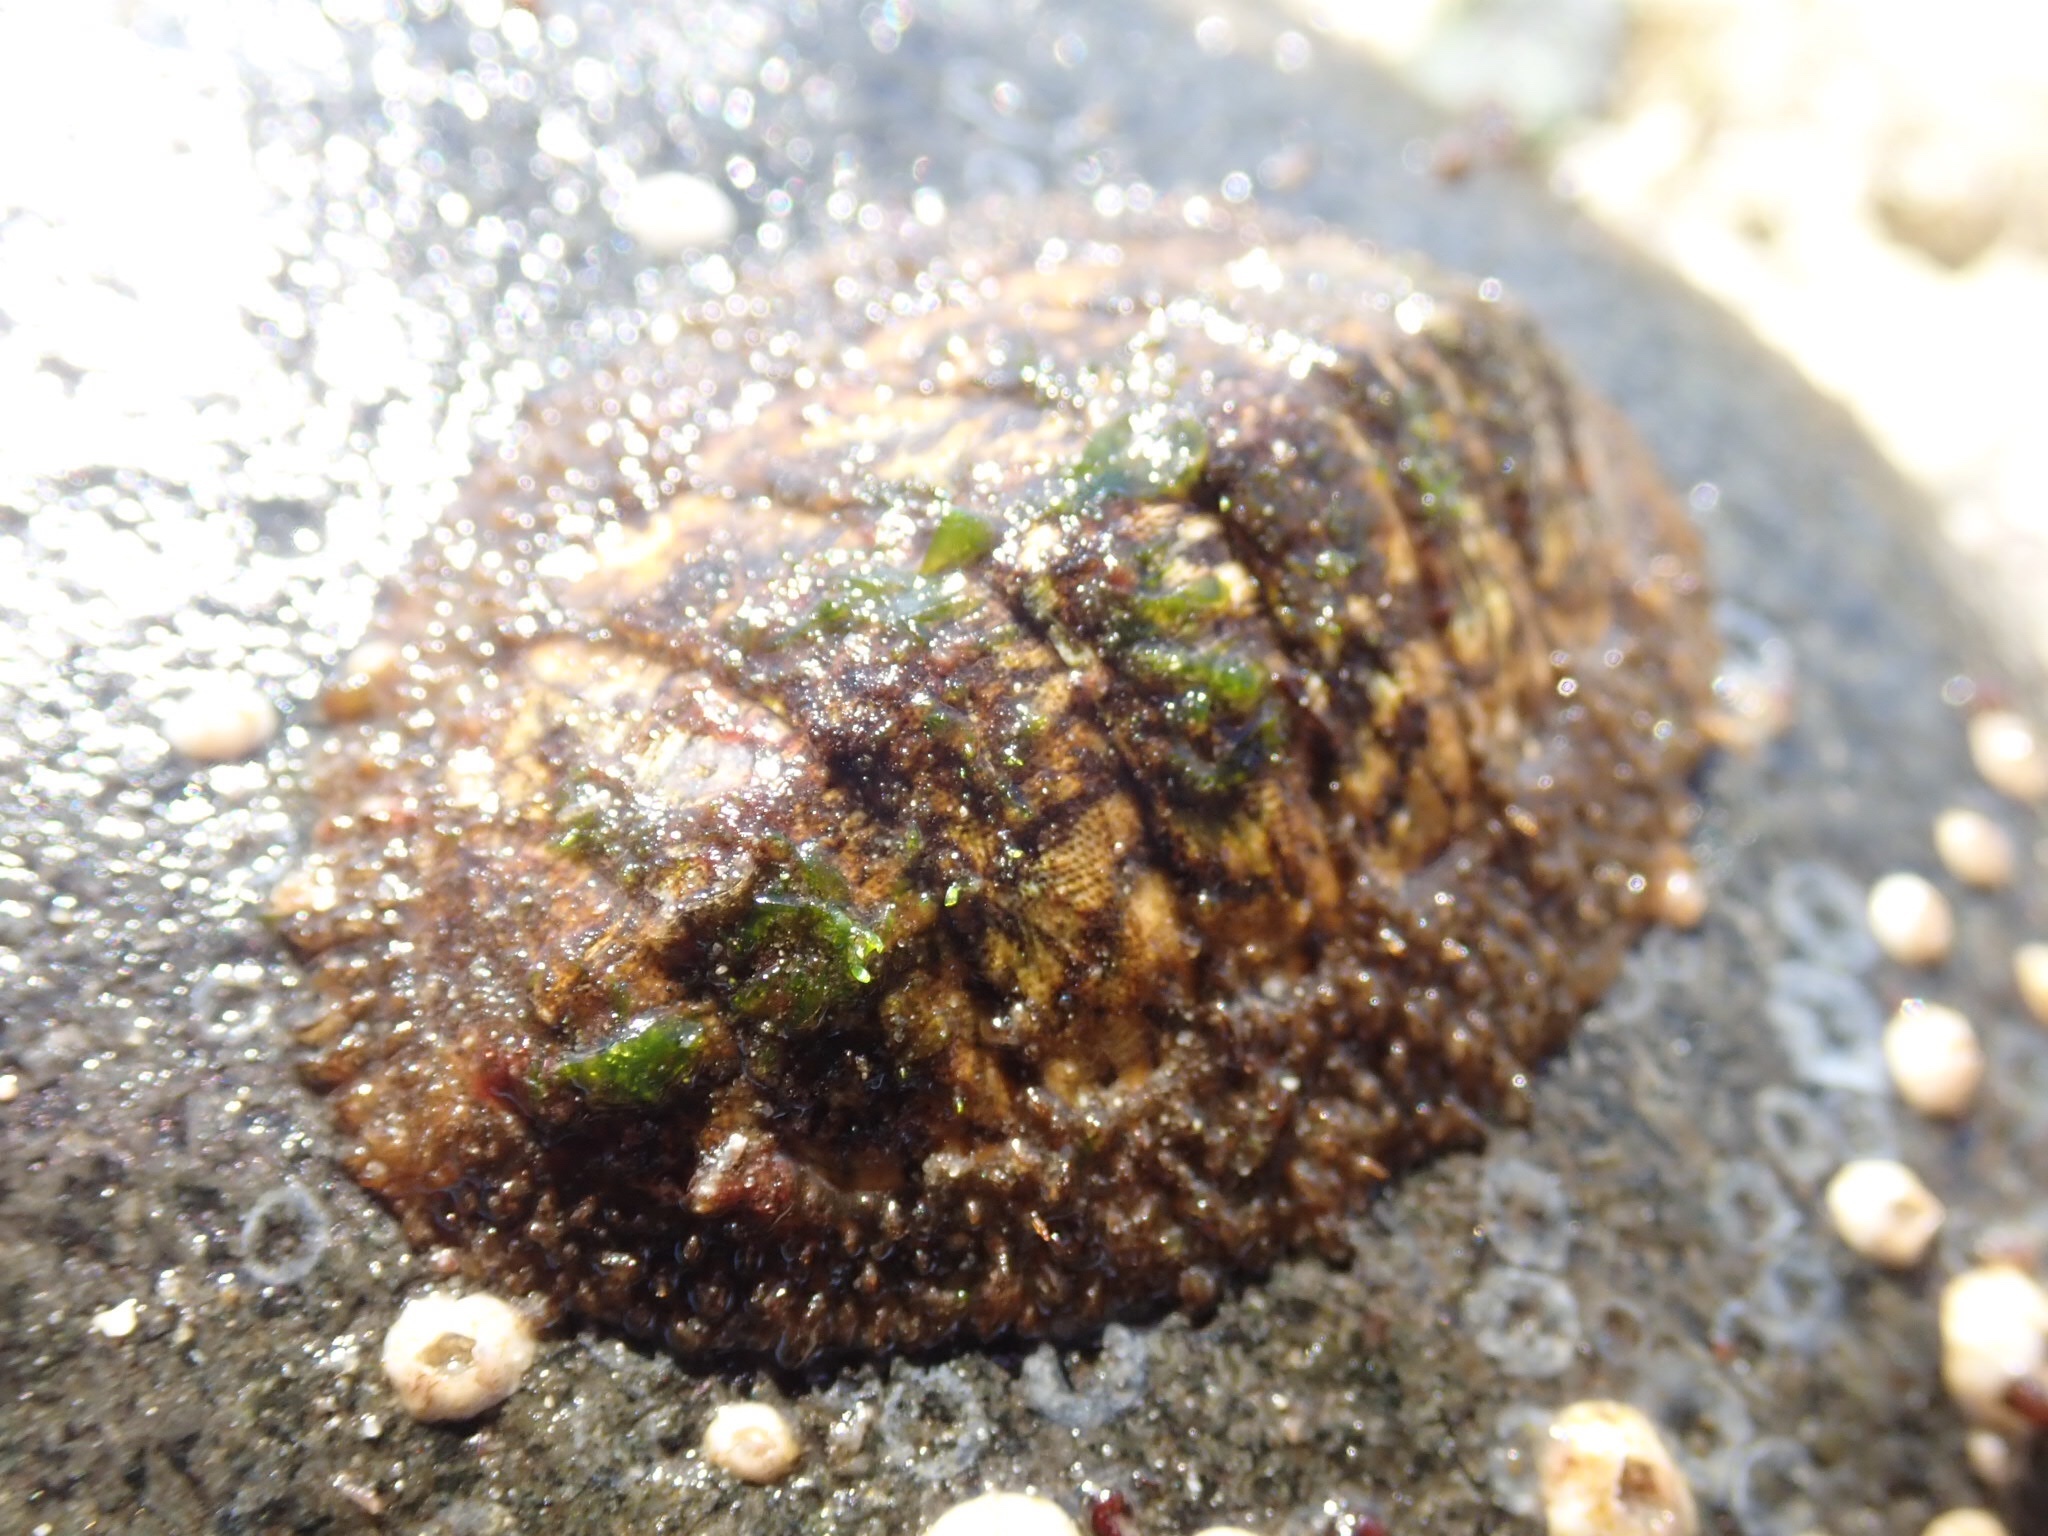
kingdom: Animalia
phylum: Mollusca
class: Polyplacophora
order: Chitonida
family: Mopaliidae
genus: Mopalia
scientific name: Mopalia lignosa
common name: Woody chiton
